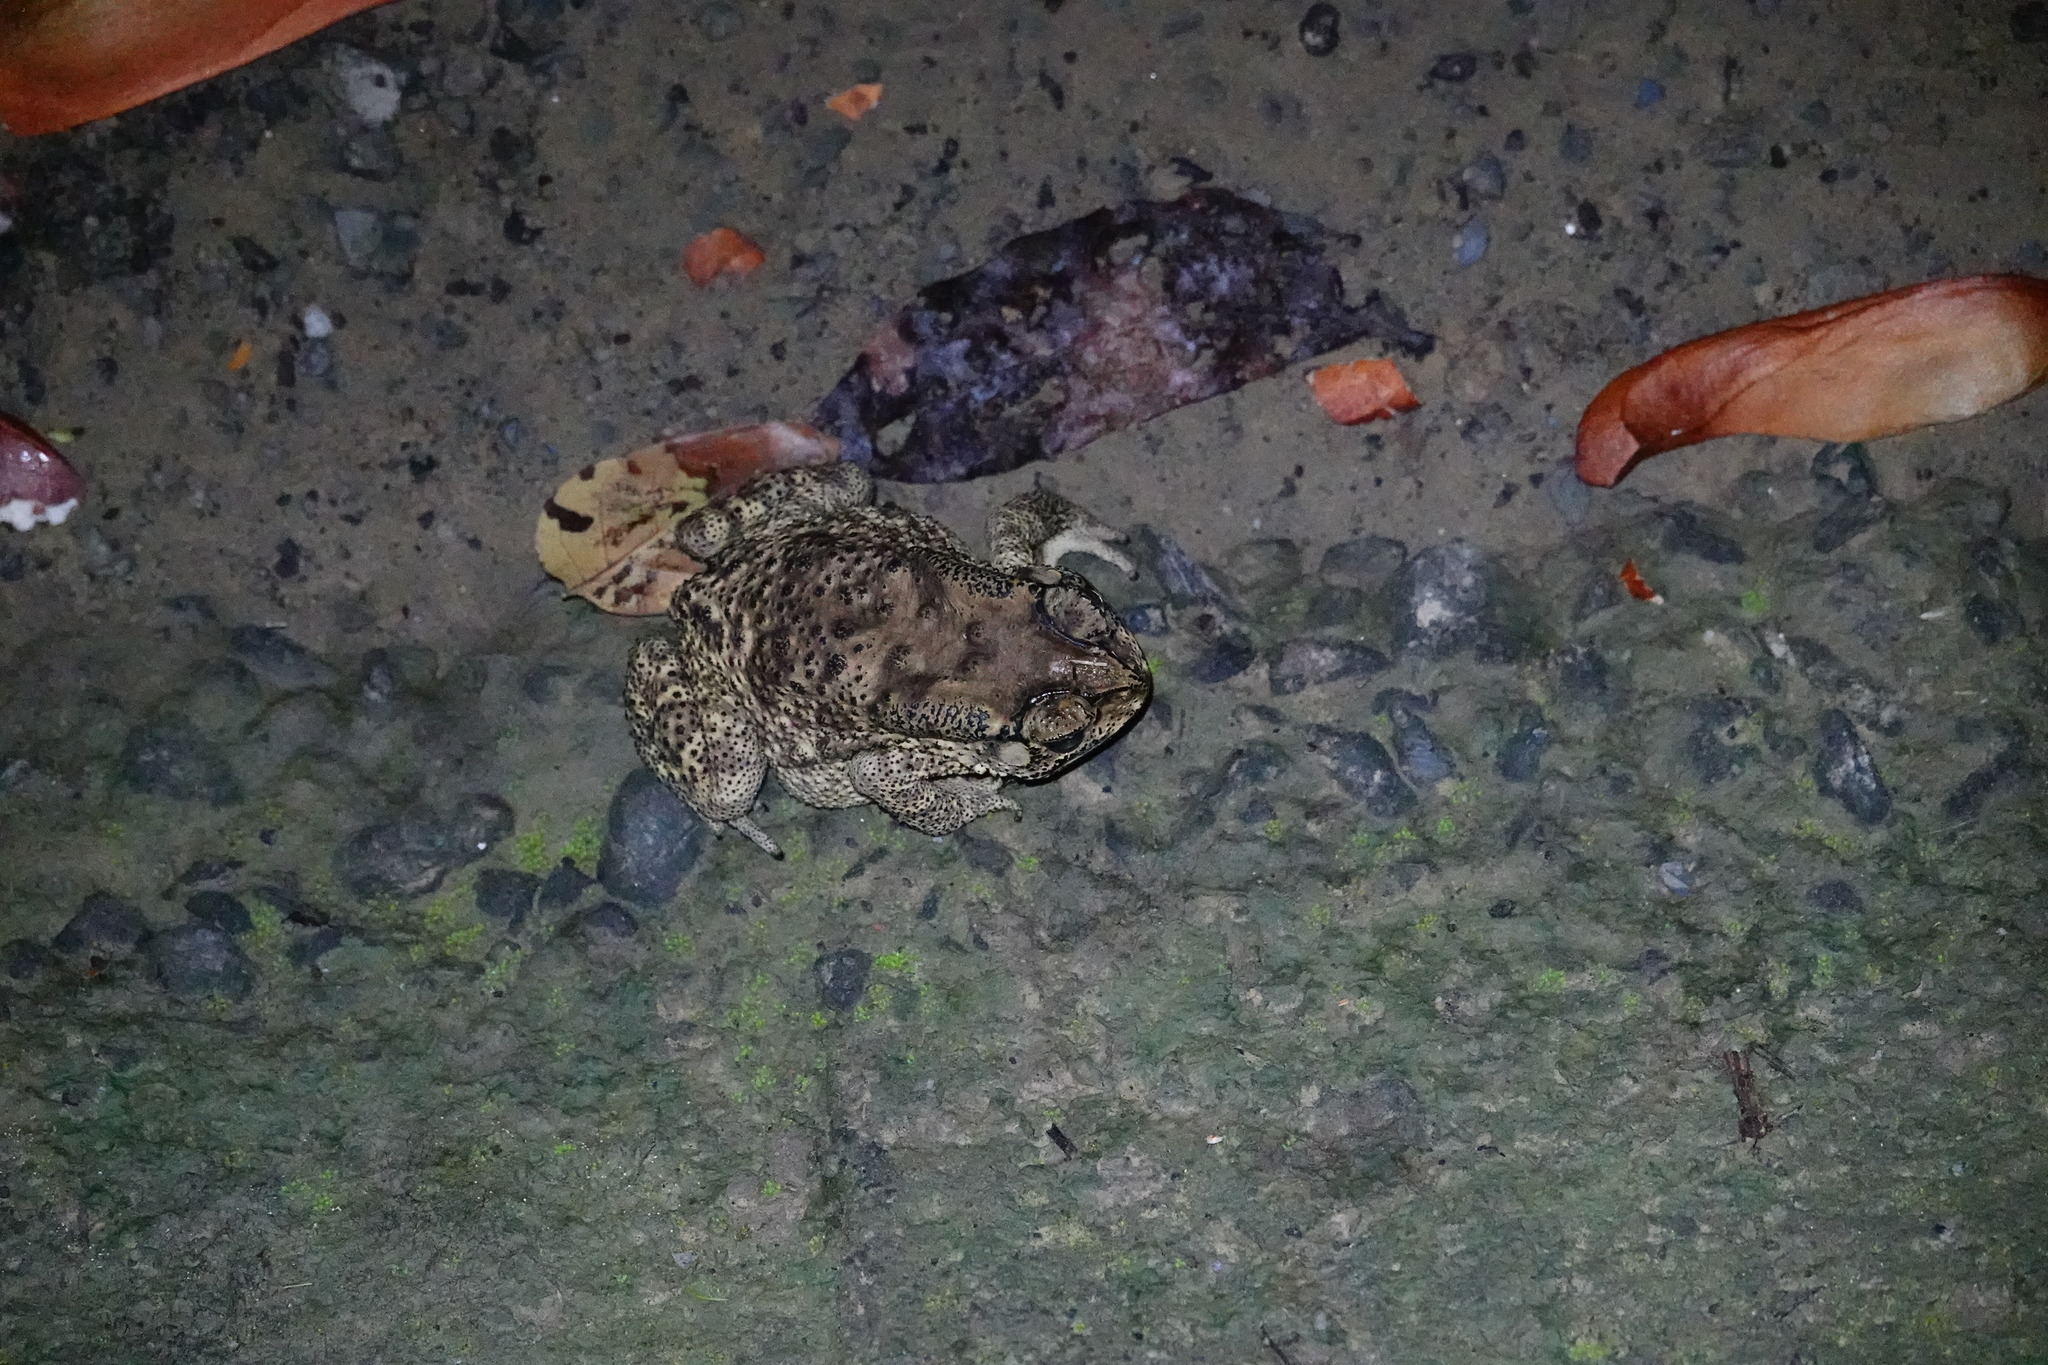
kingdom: Animalia
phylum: Chordata
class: Amphibia
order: Anura
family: Bufonidae
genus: Duttaphrynus
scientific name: Duttaphrynus melanostictus
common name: Common sunda toad
